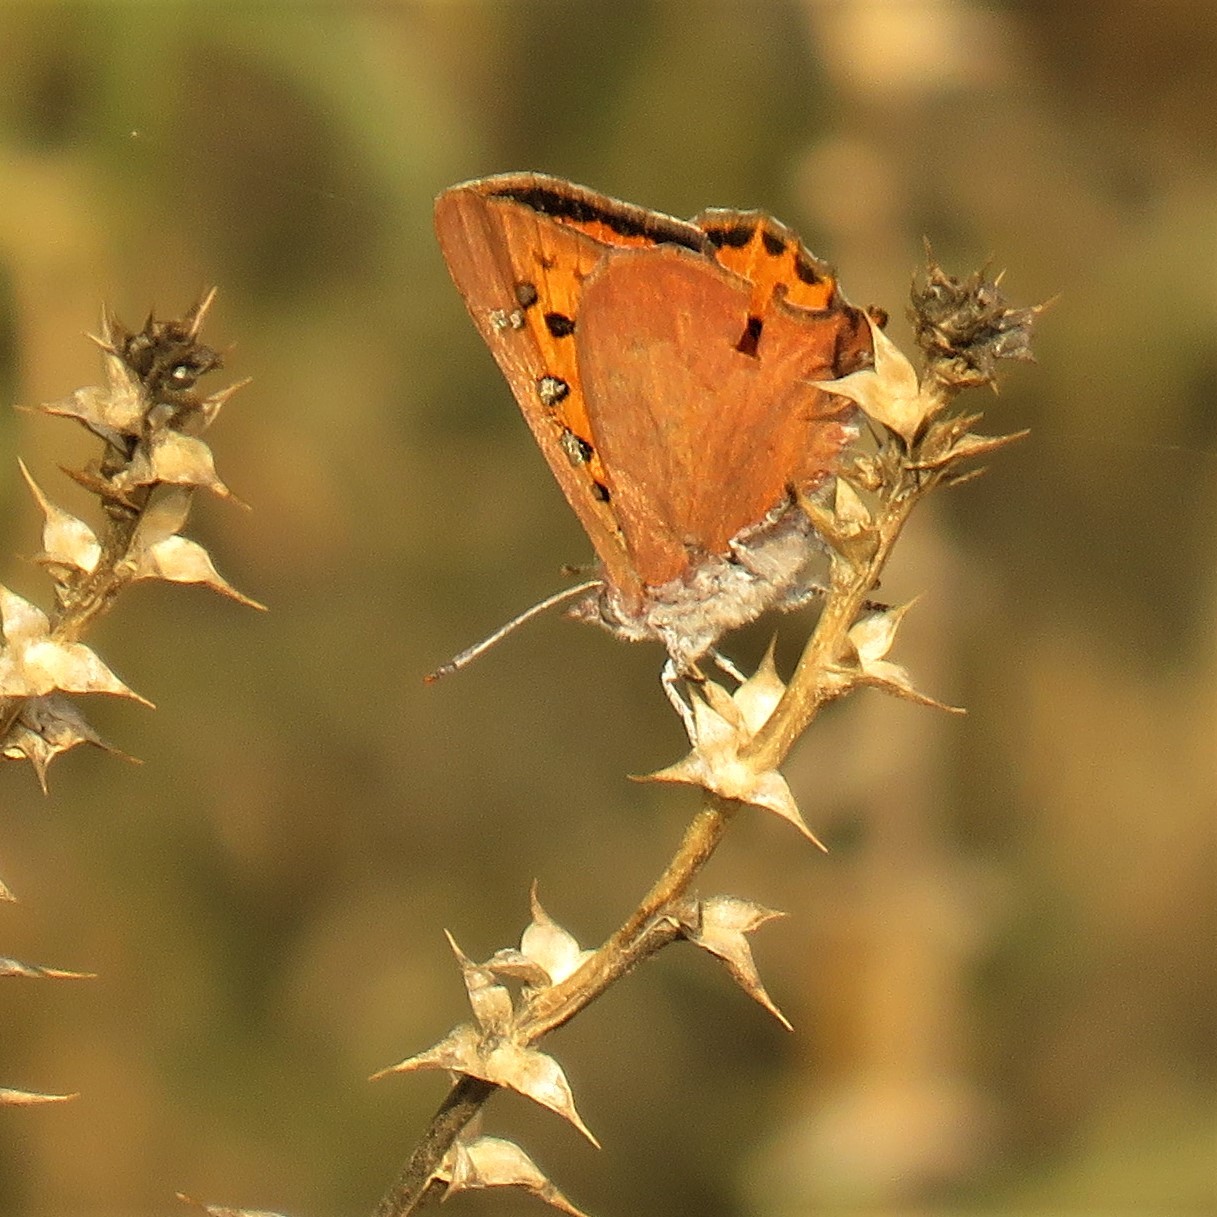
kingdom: Animalia
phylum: Arthropoda
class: Insecta
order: Lepidoptera
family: Lycaenidae
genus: Zeritis
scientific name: Zeritis chrysaor
